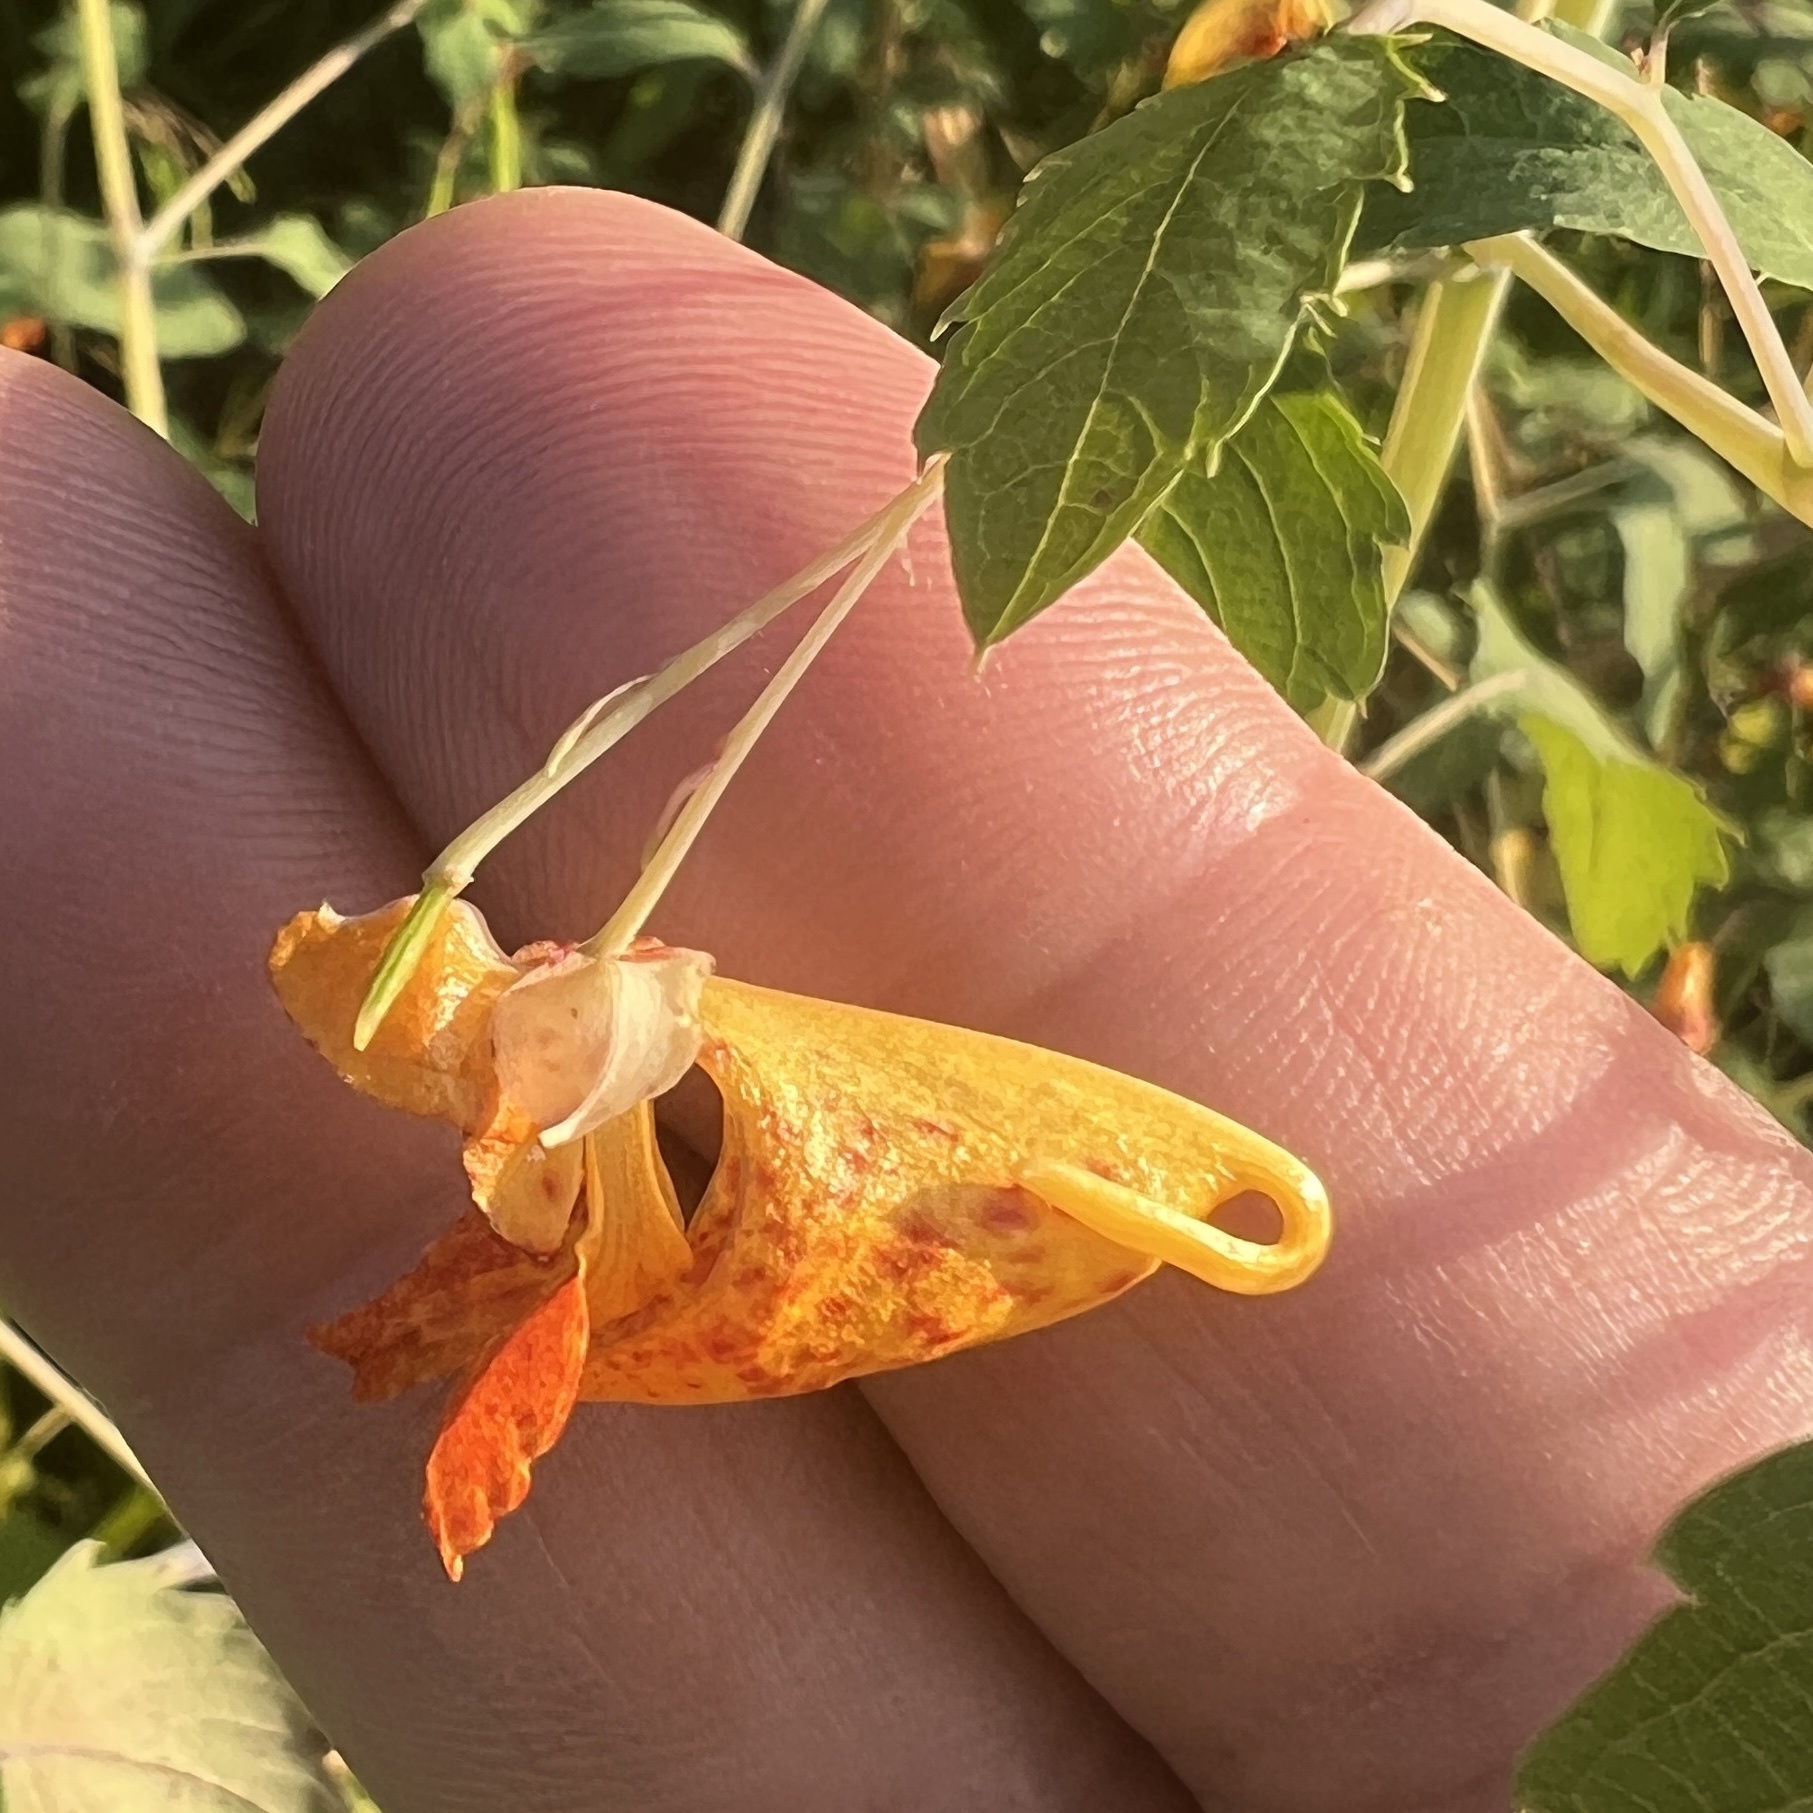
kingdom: Plantae
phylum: Tracheophyta
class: Magnoliopsida
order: Ericales
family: Balsaminaceae
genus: Impatiens
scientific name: Impatiens capensis
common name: Orange balsam
